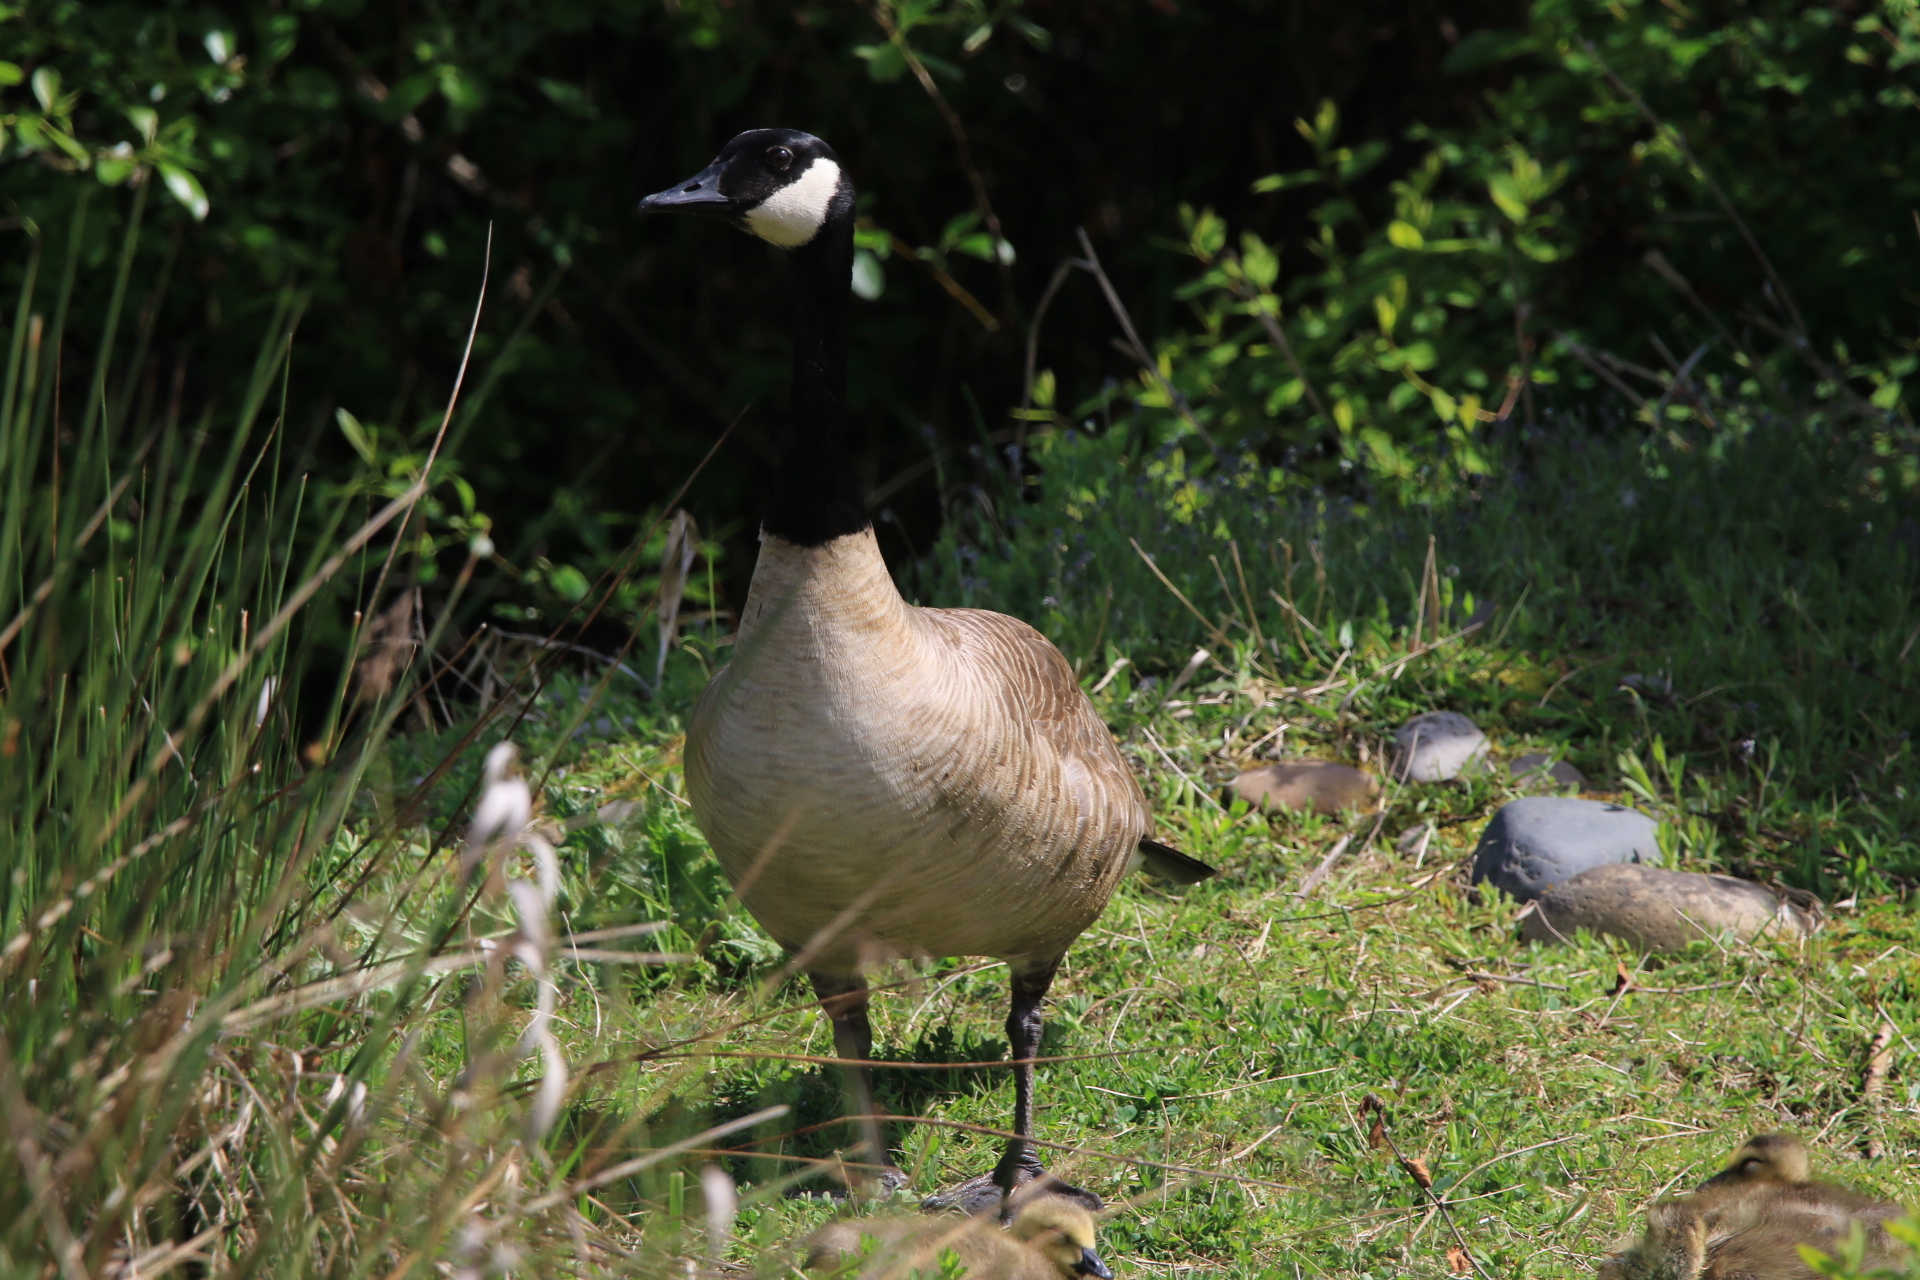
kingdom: Animalia
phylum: Chordata
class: Aves
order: Anseriformes
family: Anatidae
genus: Branta
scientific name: Branta canadensis
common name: Canada goose
